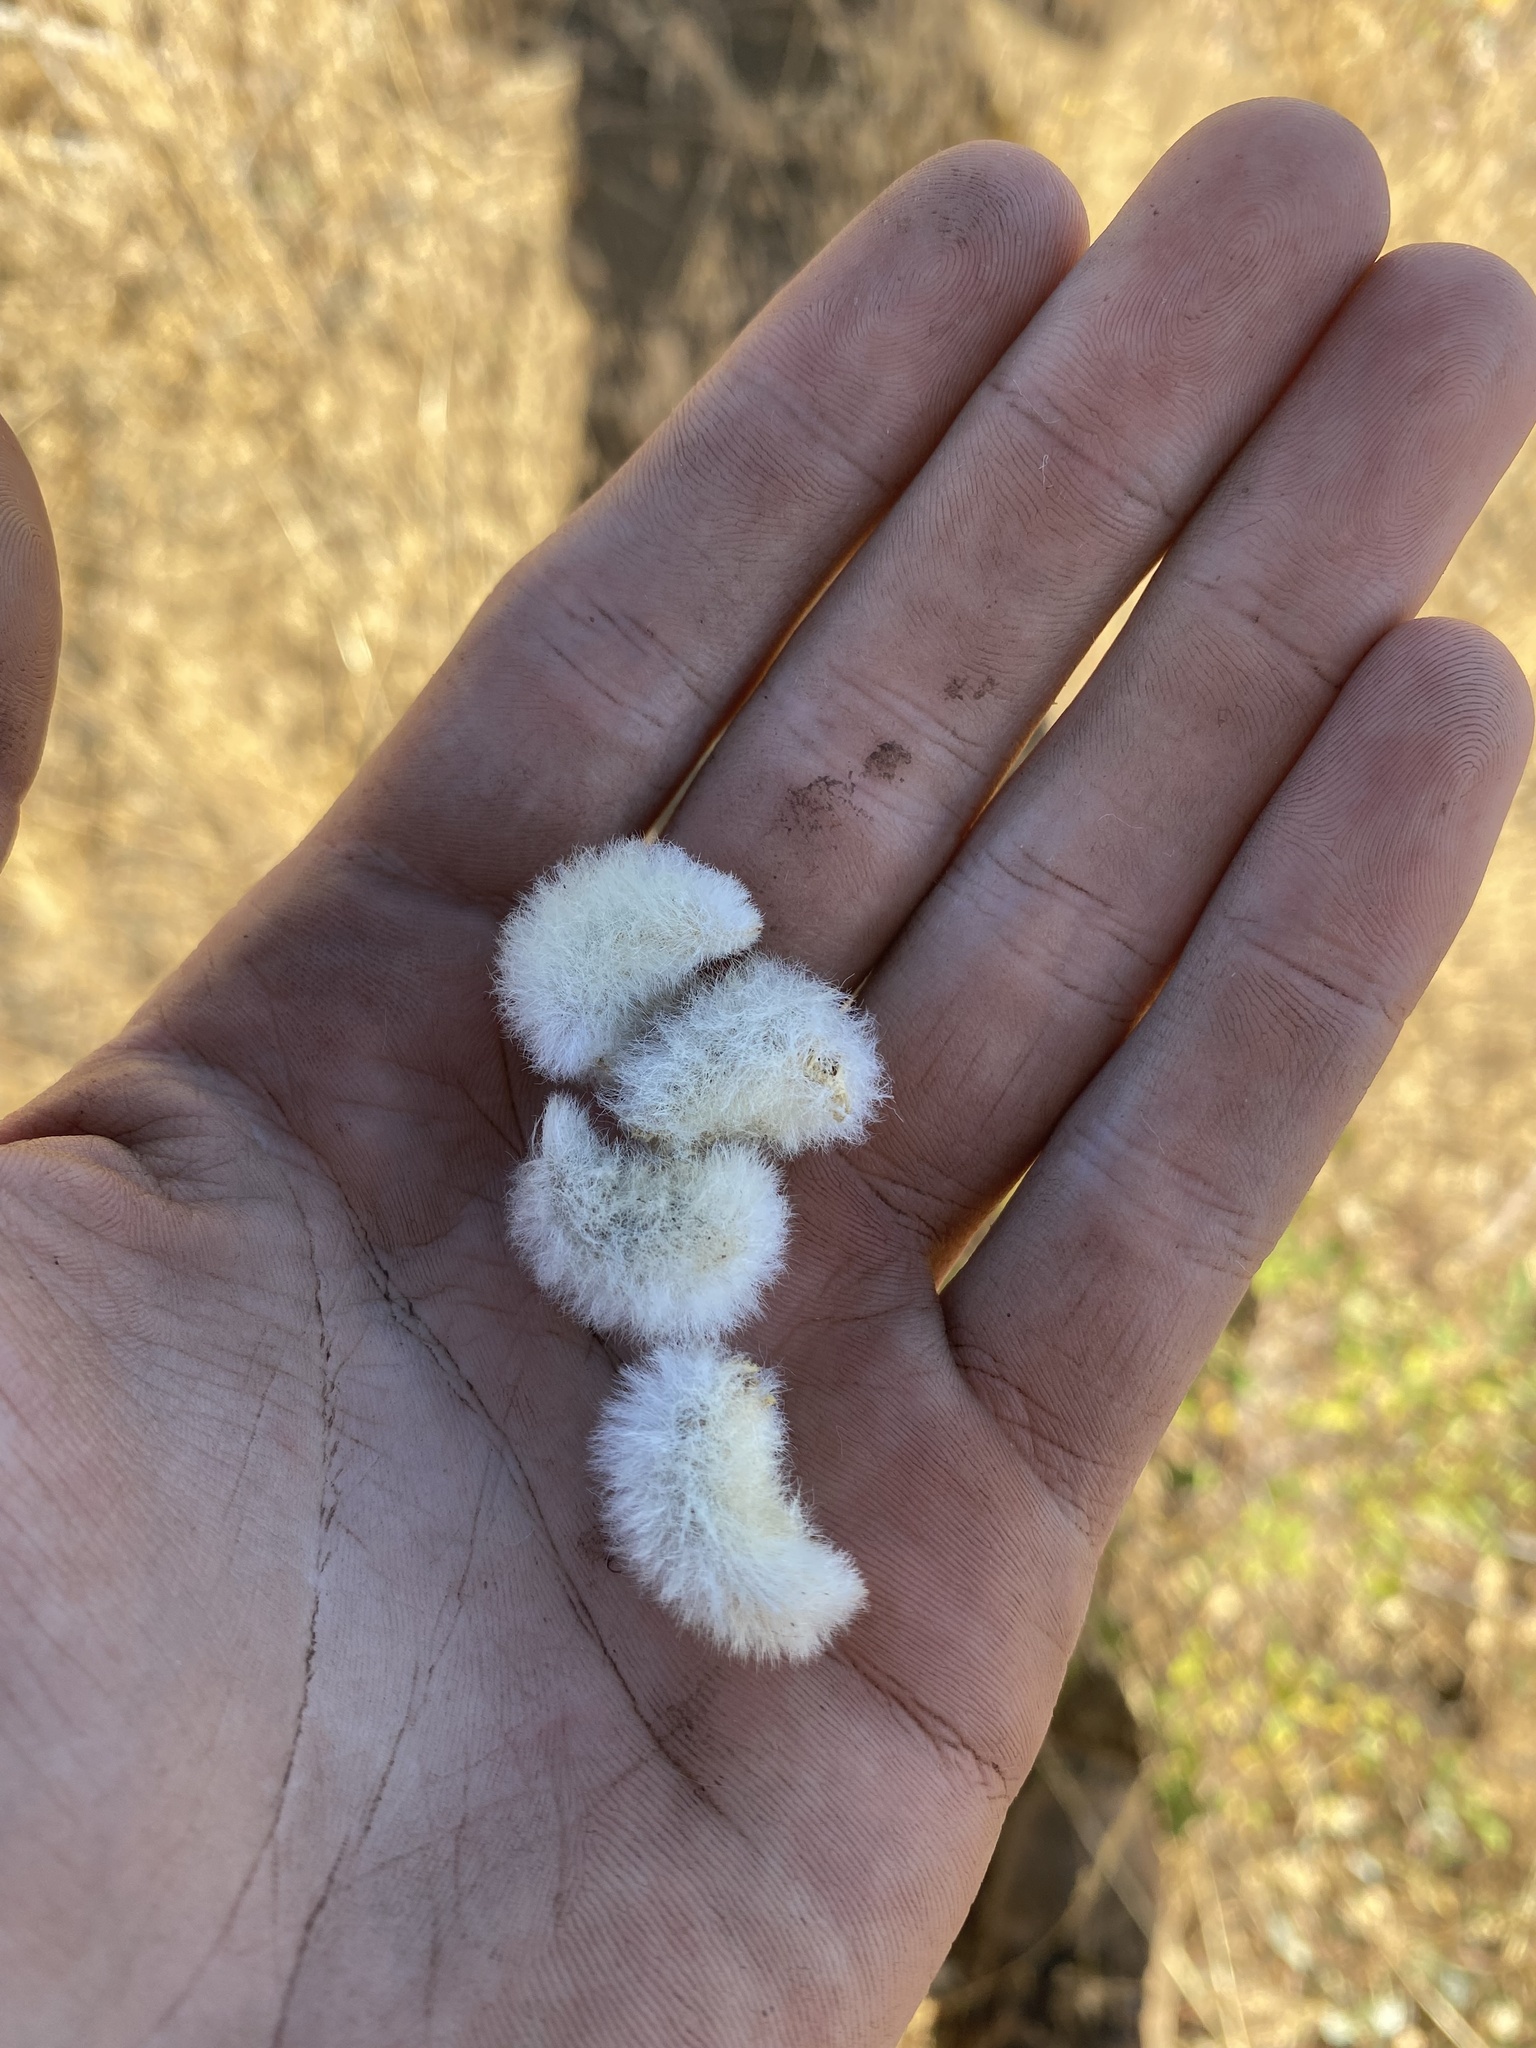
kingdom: Plantae
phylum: Tracheophyta
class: Magnoliopsida
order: Fabales
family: Fabaceae
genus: Astragalus
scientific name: Astragalus purshii
